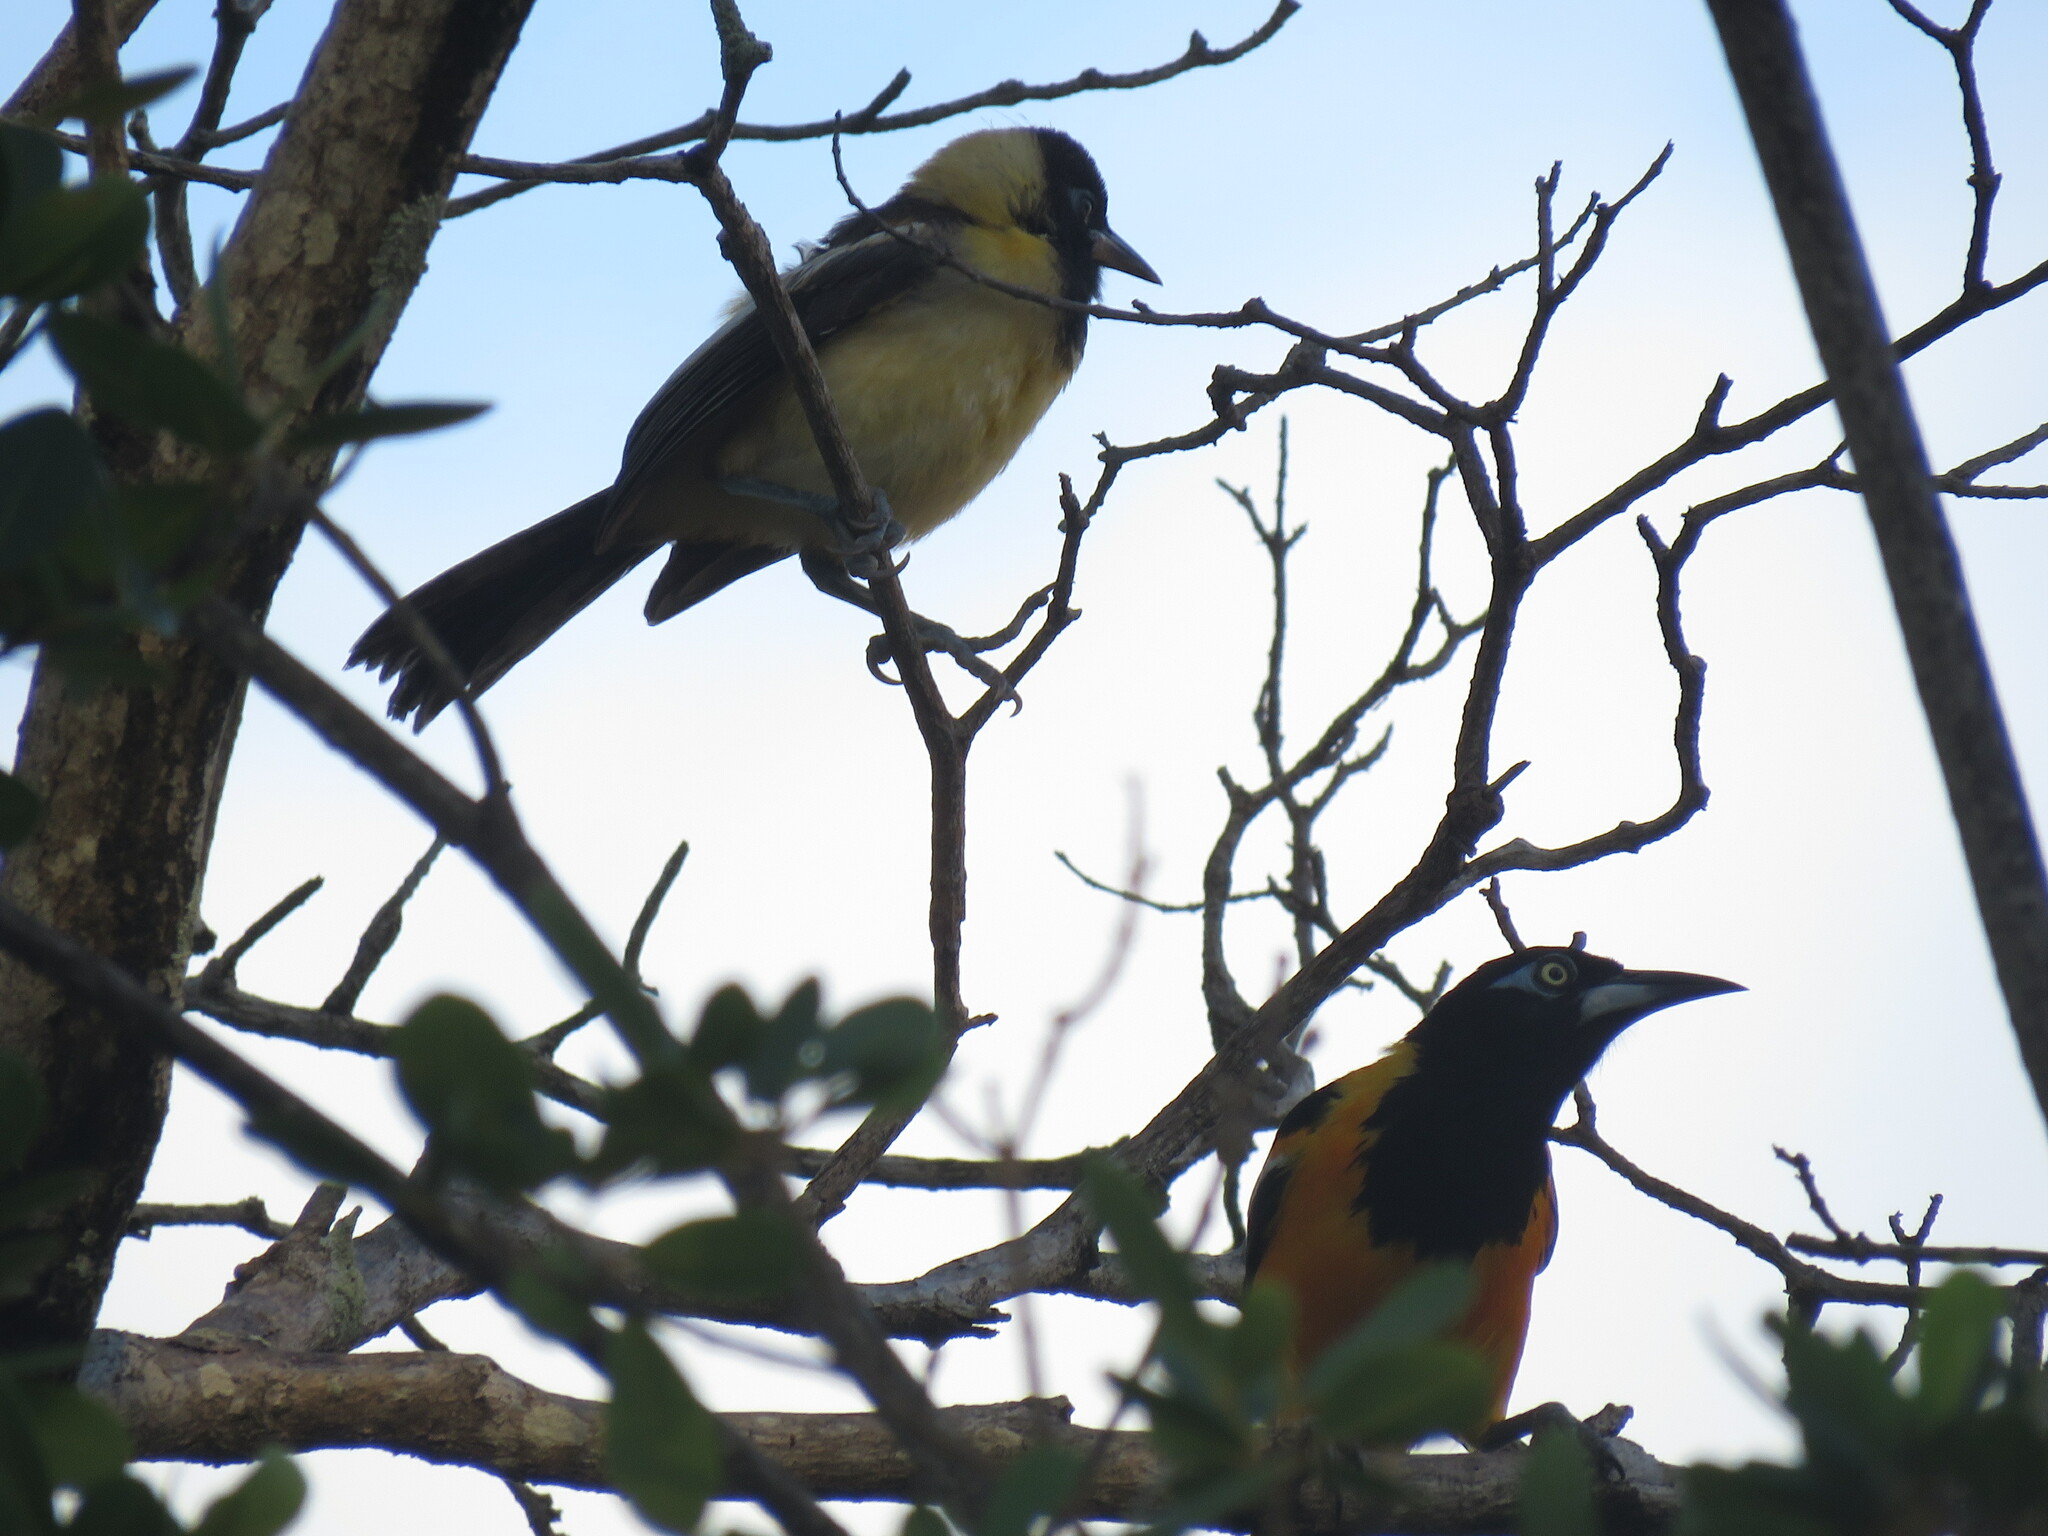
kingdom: Animalia
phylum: Chordata
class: Aves
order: Passeriformes
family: Icteridae
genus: Icterus
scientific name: Icterus icterus
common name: Venezuelan troupial
